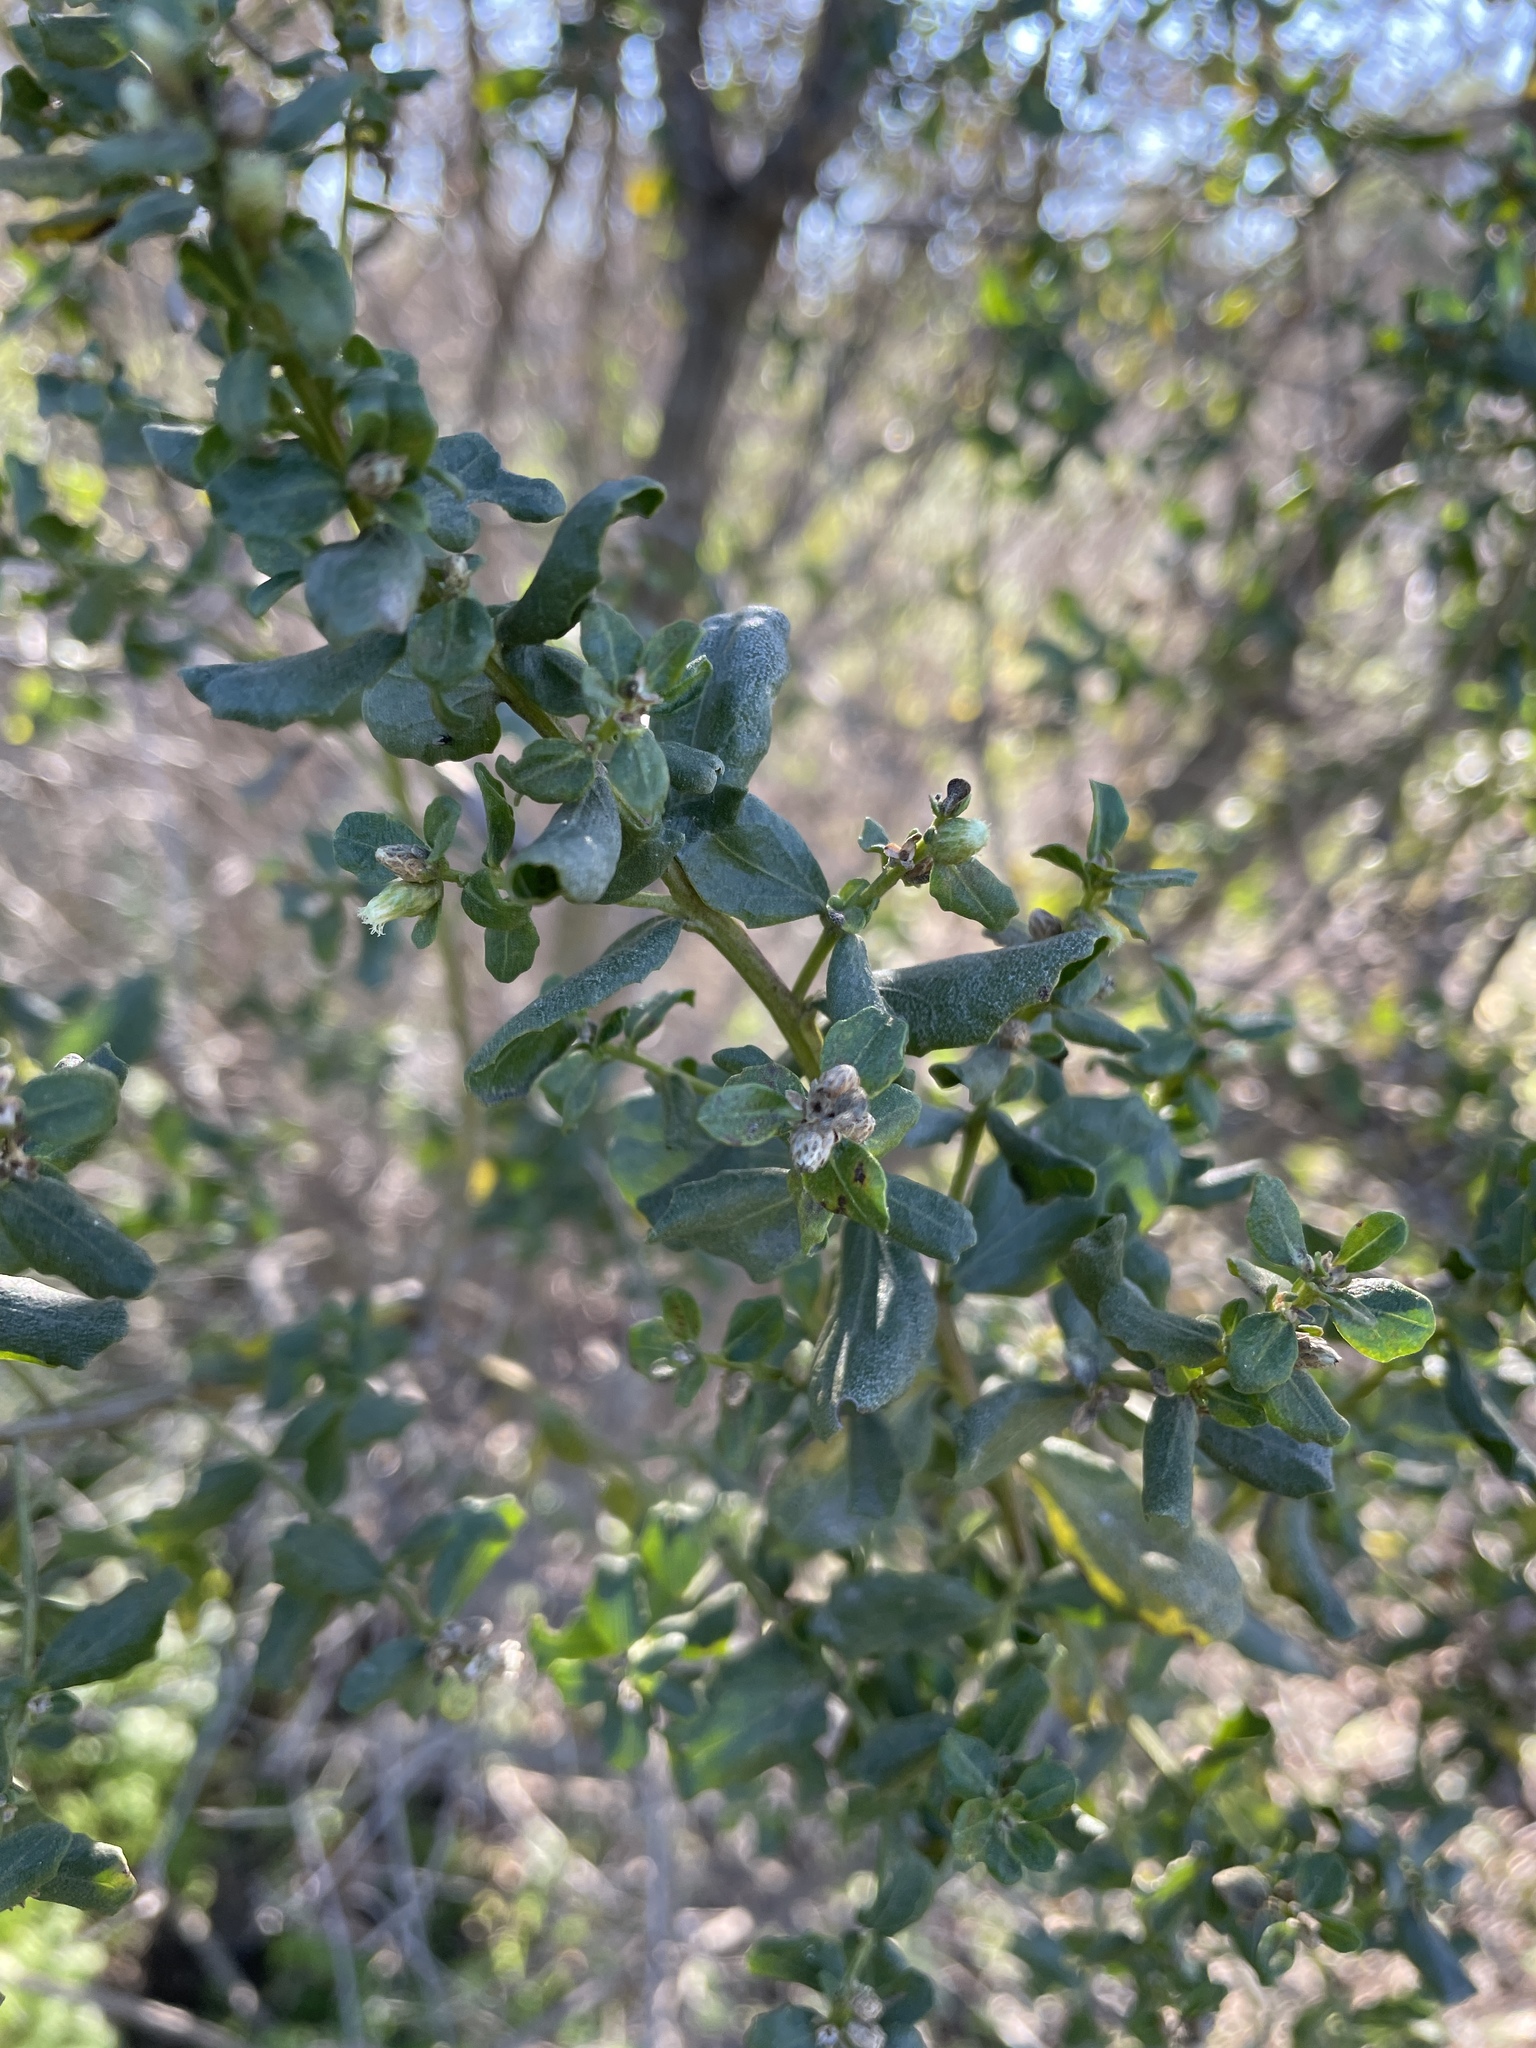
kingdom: Plantae
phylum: Tracheophyta
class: Magnoliopsida
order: Asterales
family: Asteraceae
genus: Baccharis
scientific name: Baccharis pilularis
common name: Coyotebrush
